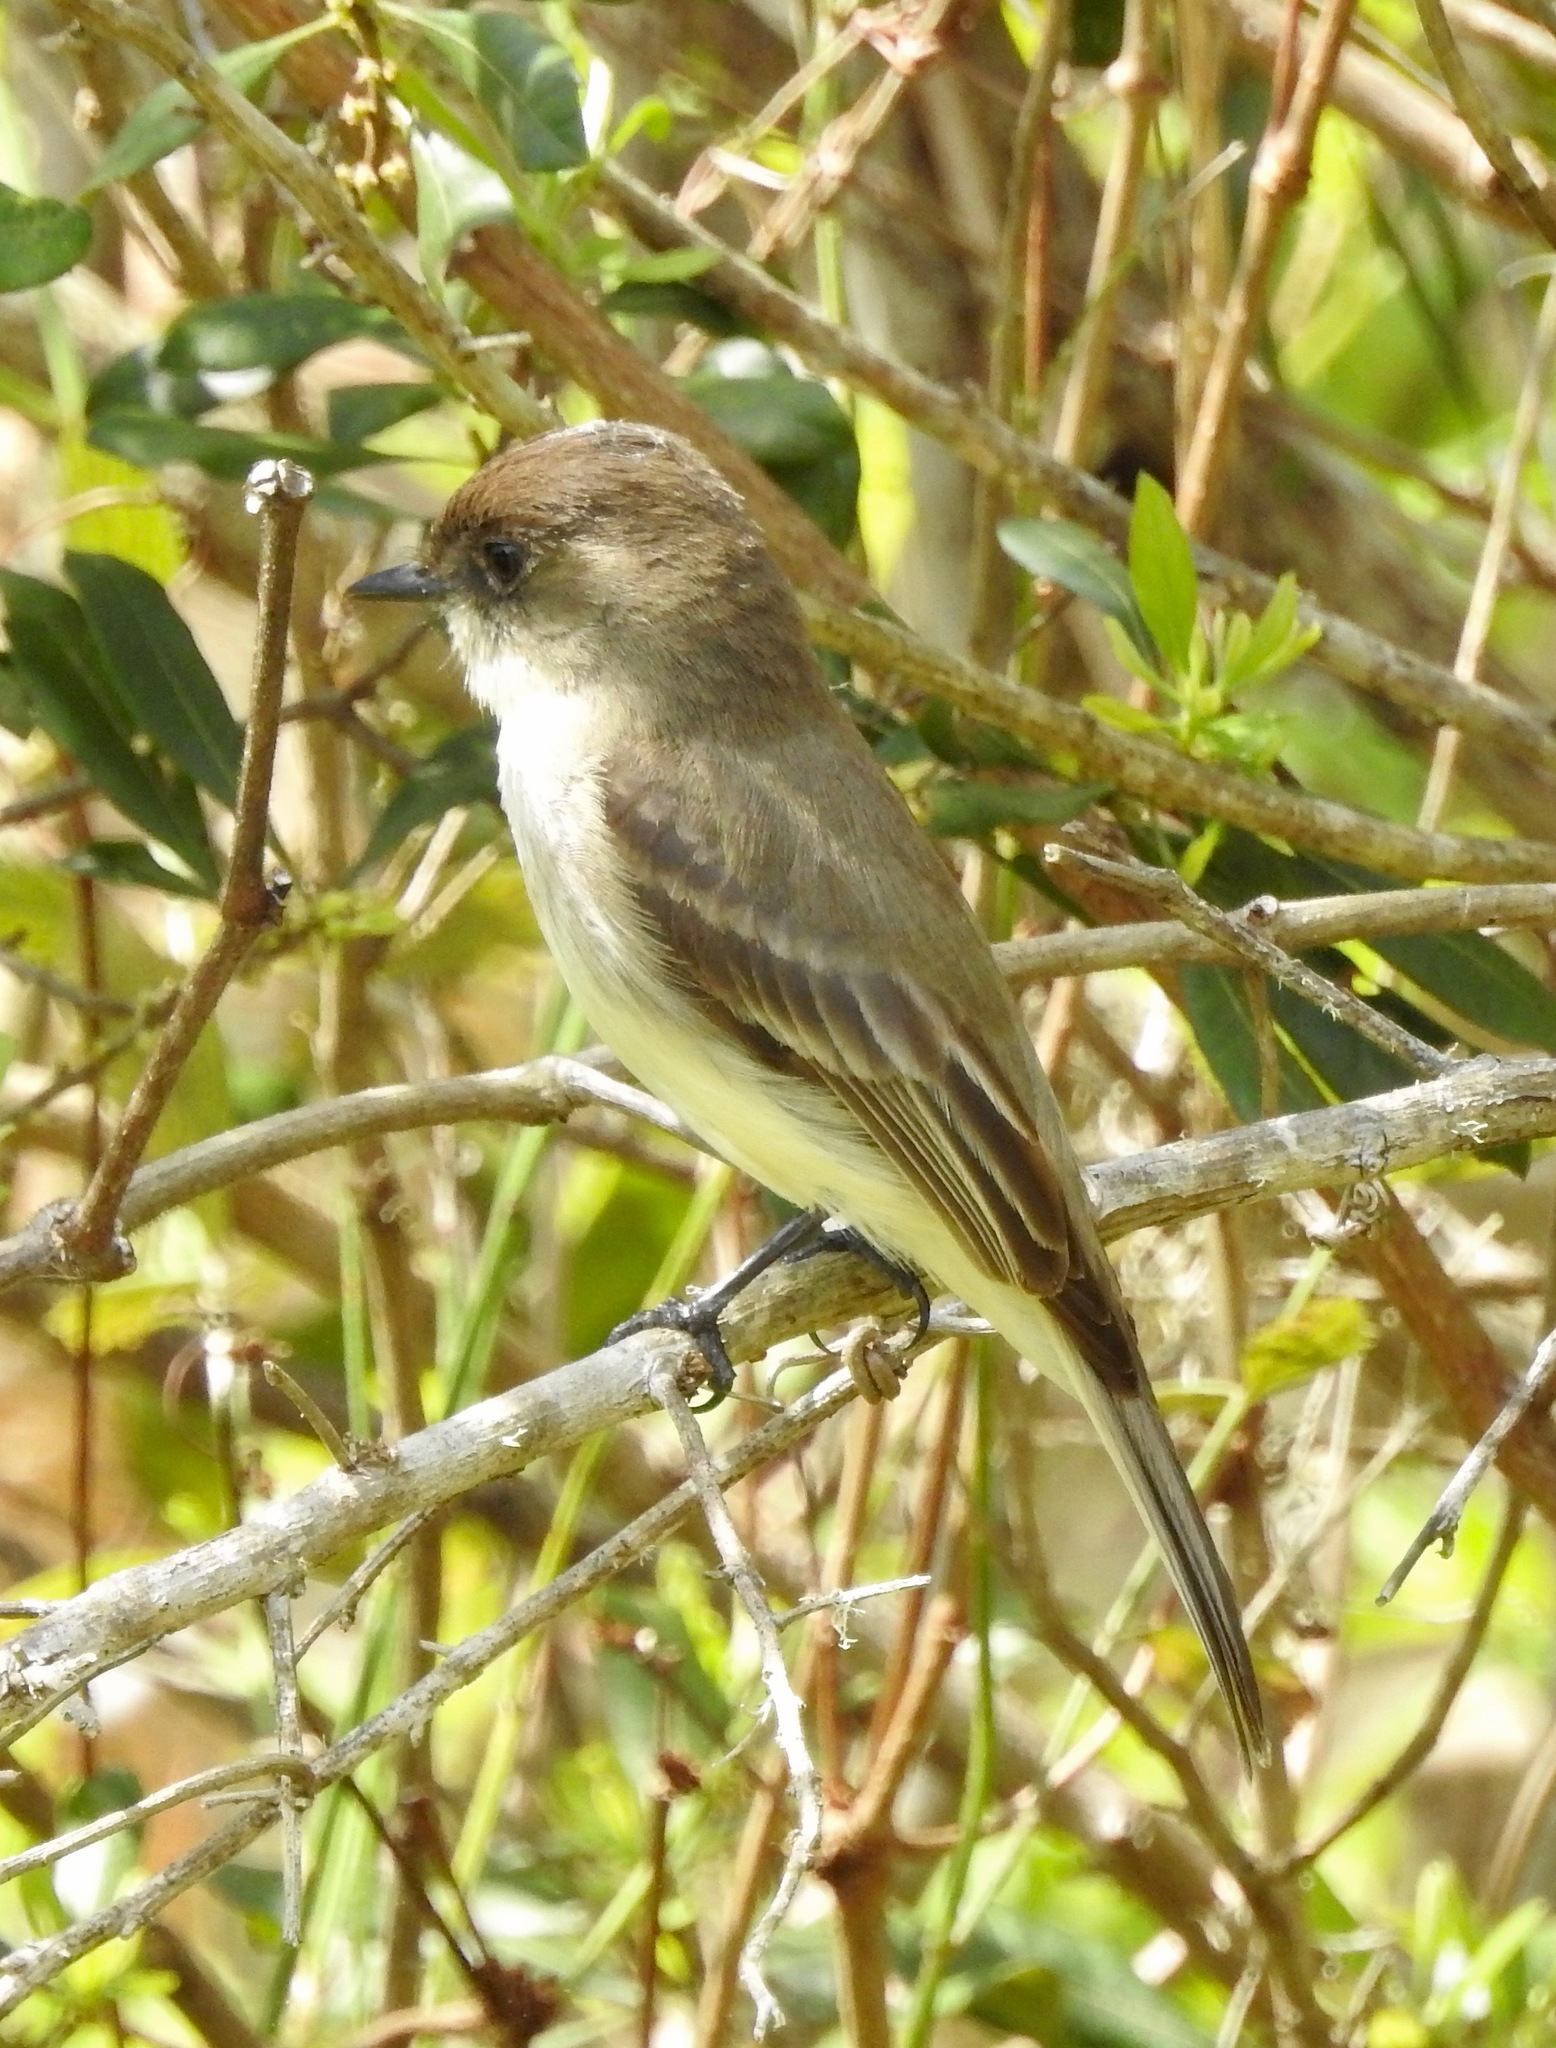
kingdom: Animalia
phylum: Chordata
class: Aves
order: Passeriformes
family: Tyrannidae
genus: Sayornis
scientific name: Sayornis phoebe
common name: Eastern phoebe
